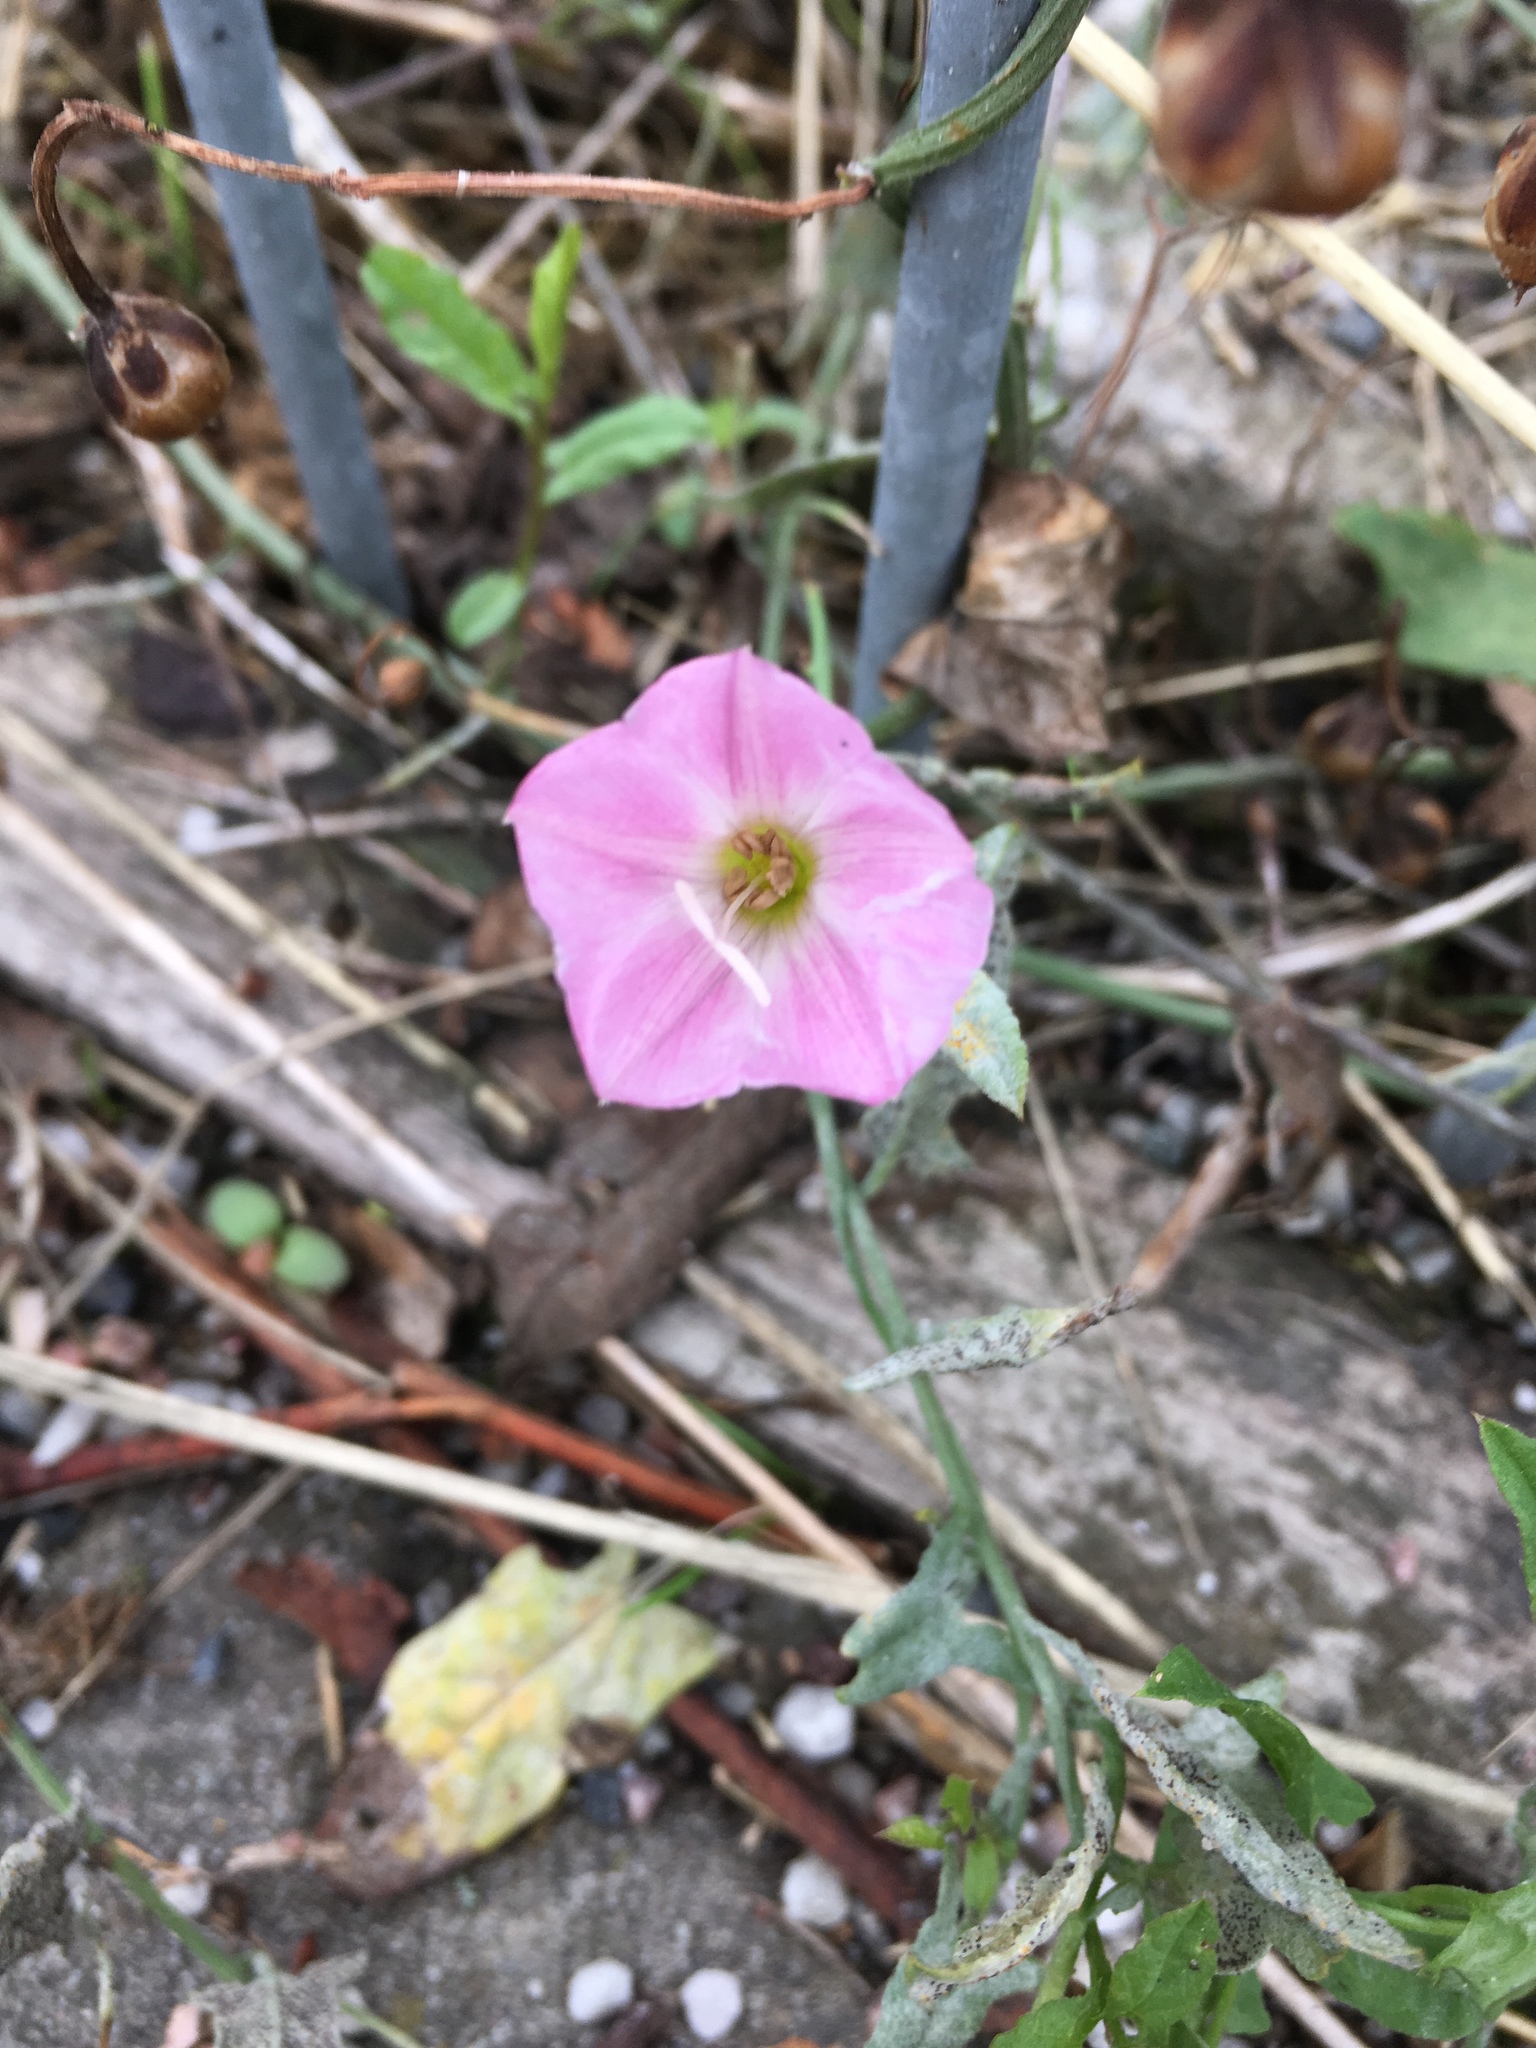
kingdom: Plantae
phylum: Tracheophyta
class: Magnoliopsida
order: Solanales
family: Convolvulaceae
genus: Convolvulus
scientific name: Convolvulus arvensis
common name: Field bindweed
